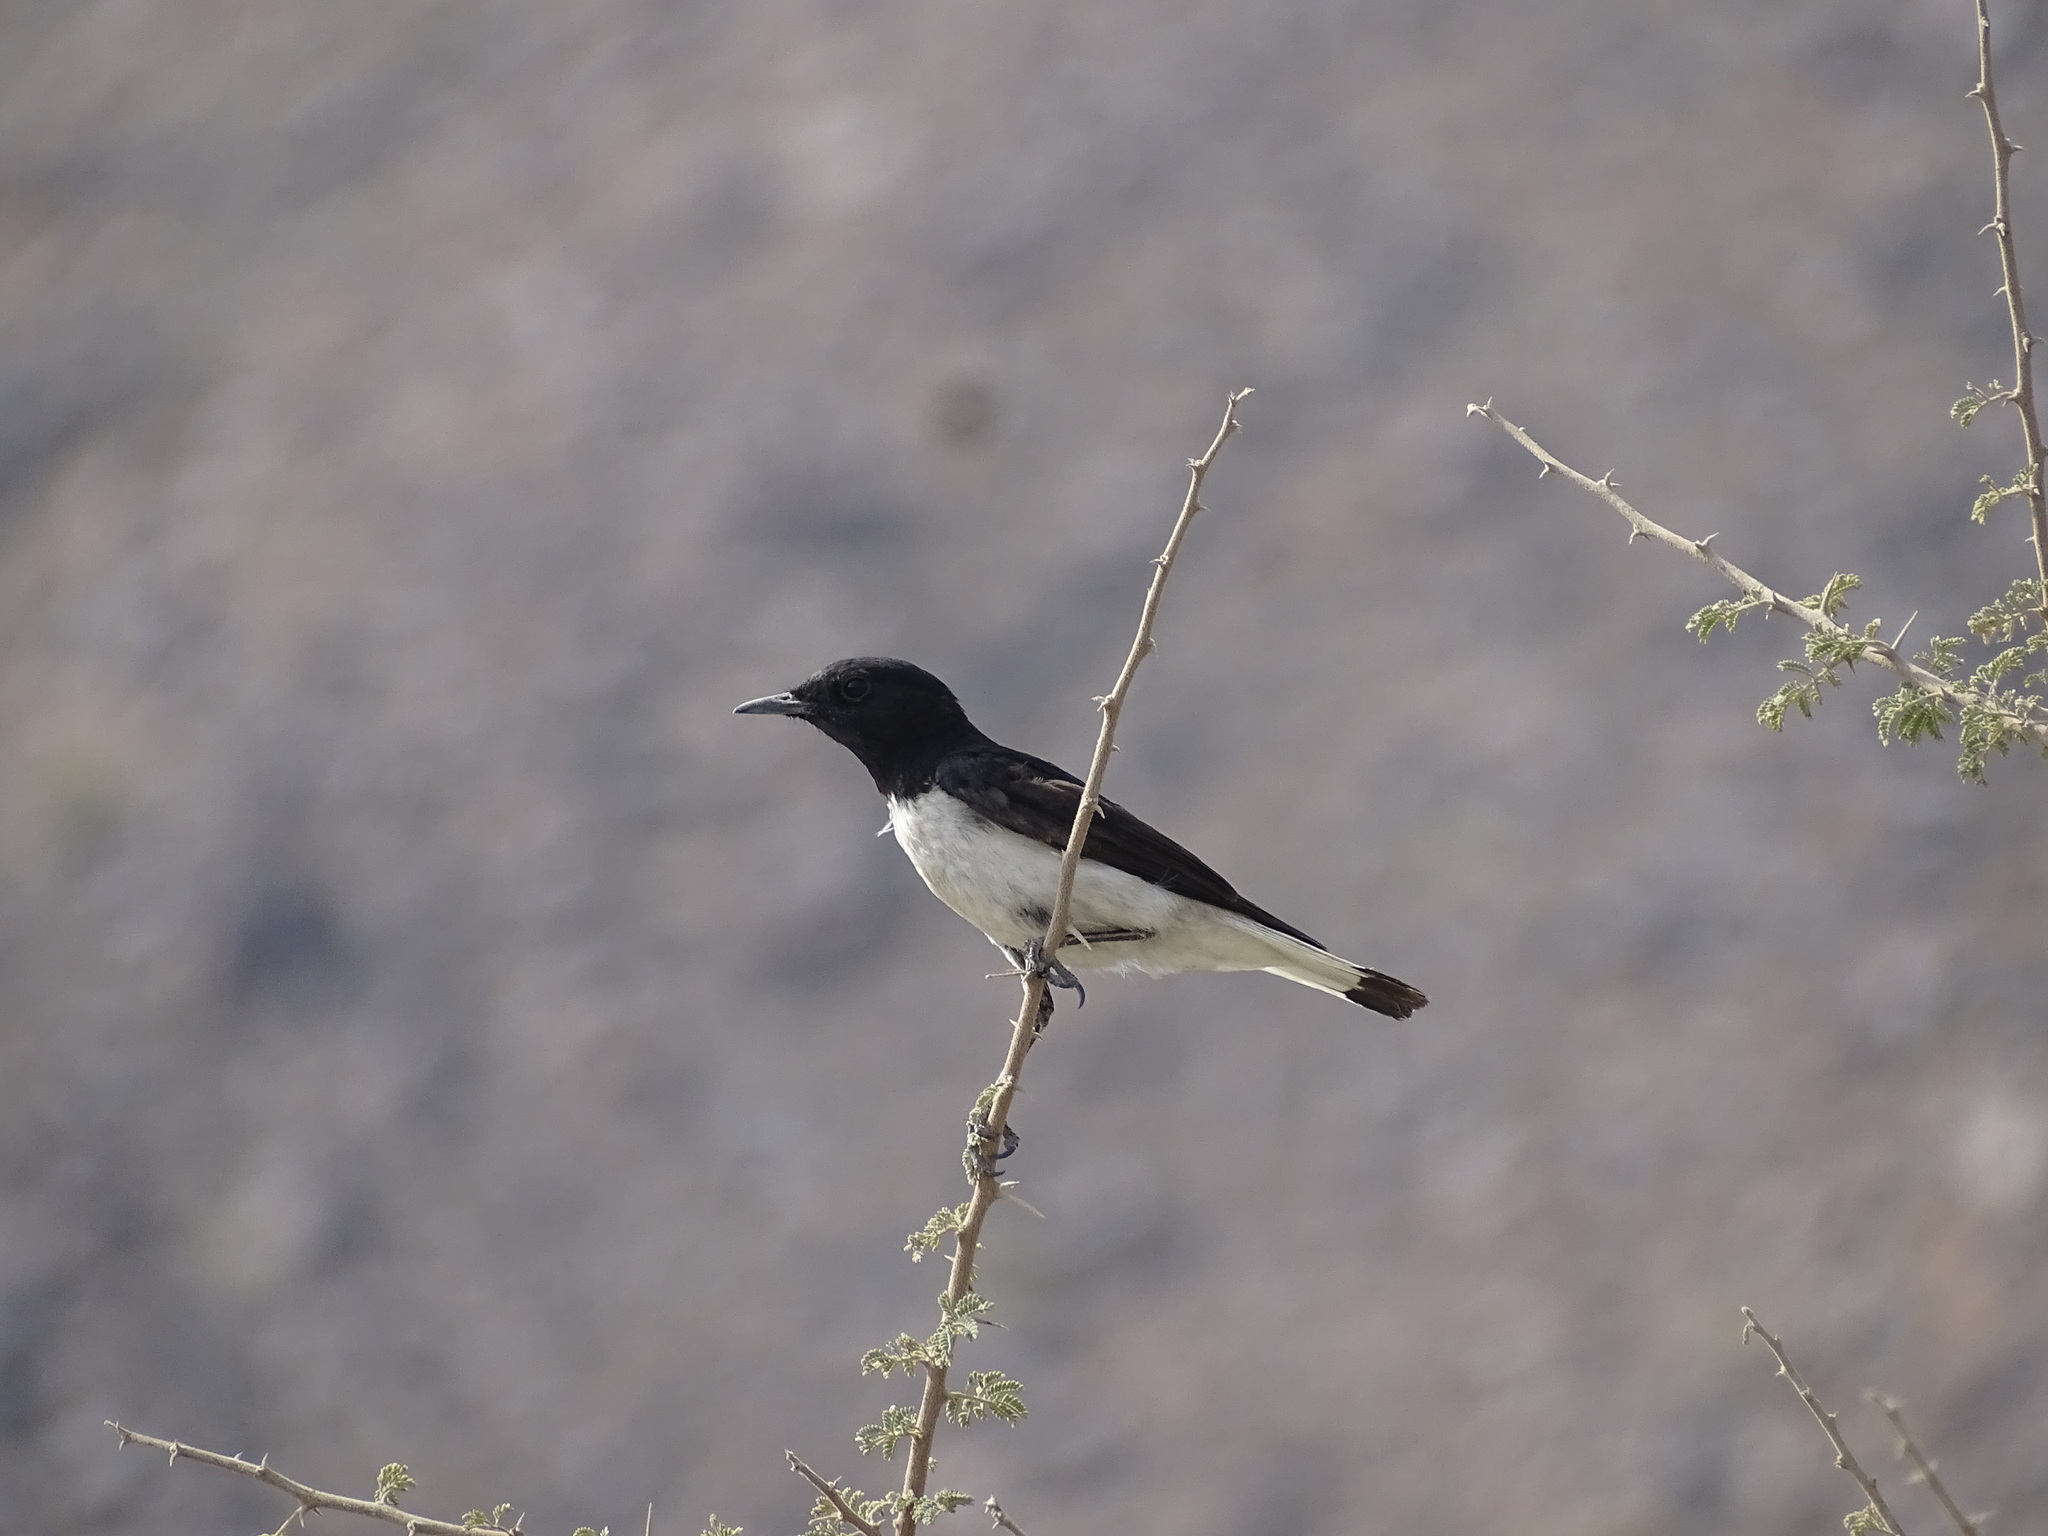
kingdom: Animalia
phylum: Chordata
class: Aves
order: Passeriformes
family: Muscicapidae
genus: Oenanthe
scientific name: Oenanthe albonigra
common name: Hume's wheatear
